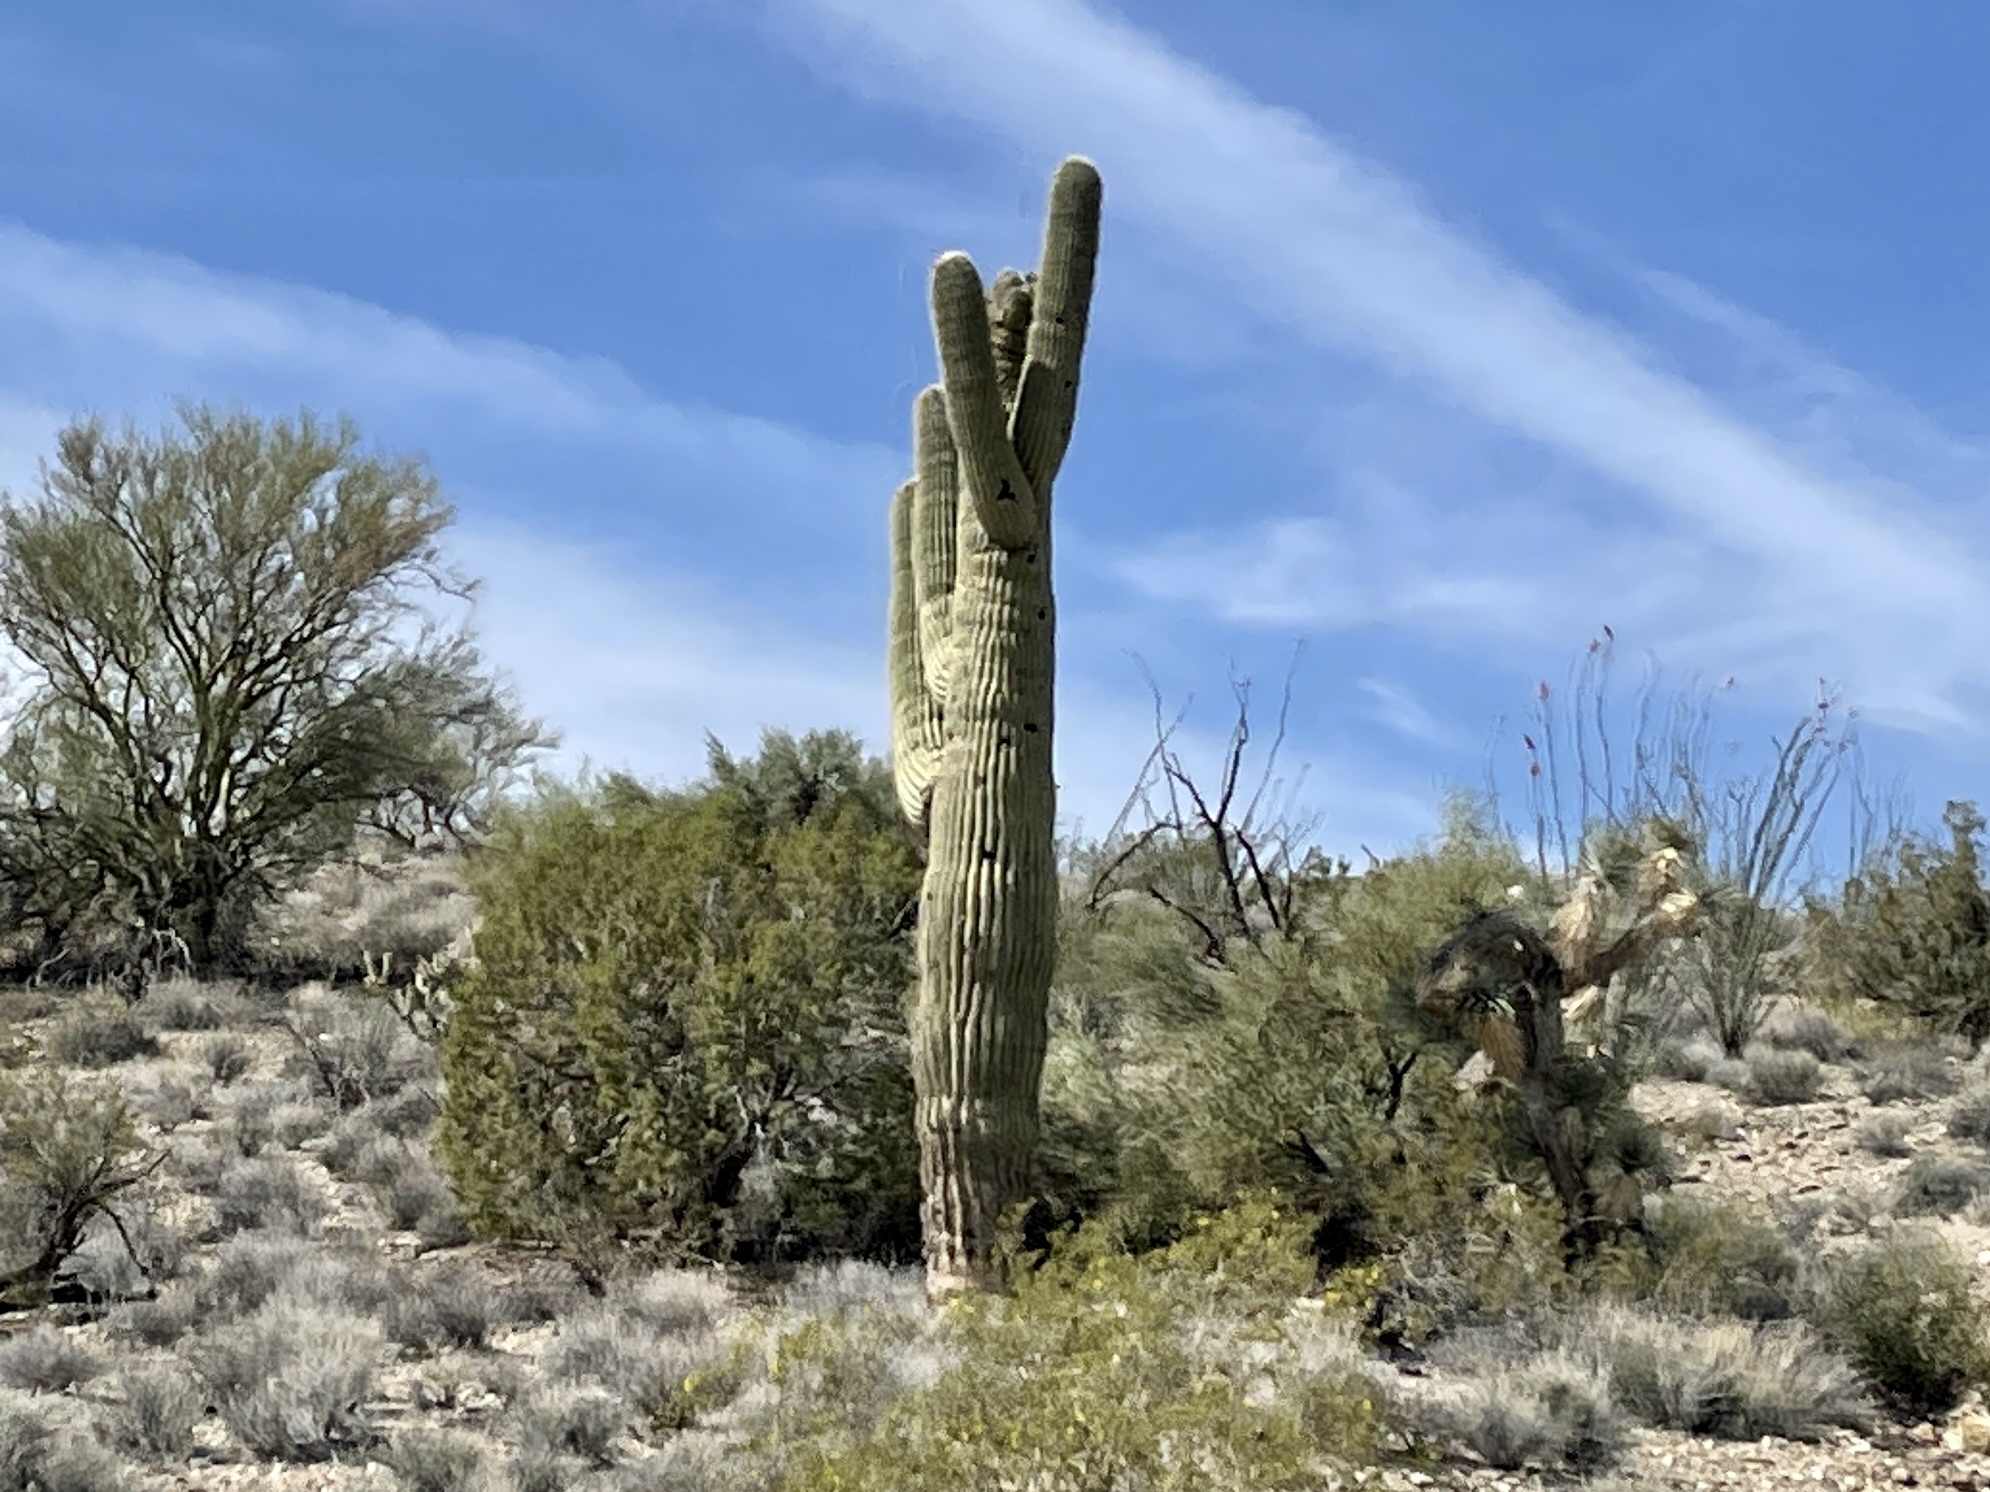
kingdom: Plantae
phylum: Tracheophyta
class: Magnoliopsida
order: Caryophyllales
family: Cactaceae
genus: Carnegiea
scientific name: Carnegiea gigantea
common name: Saguaro
